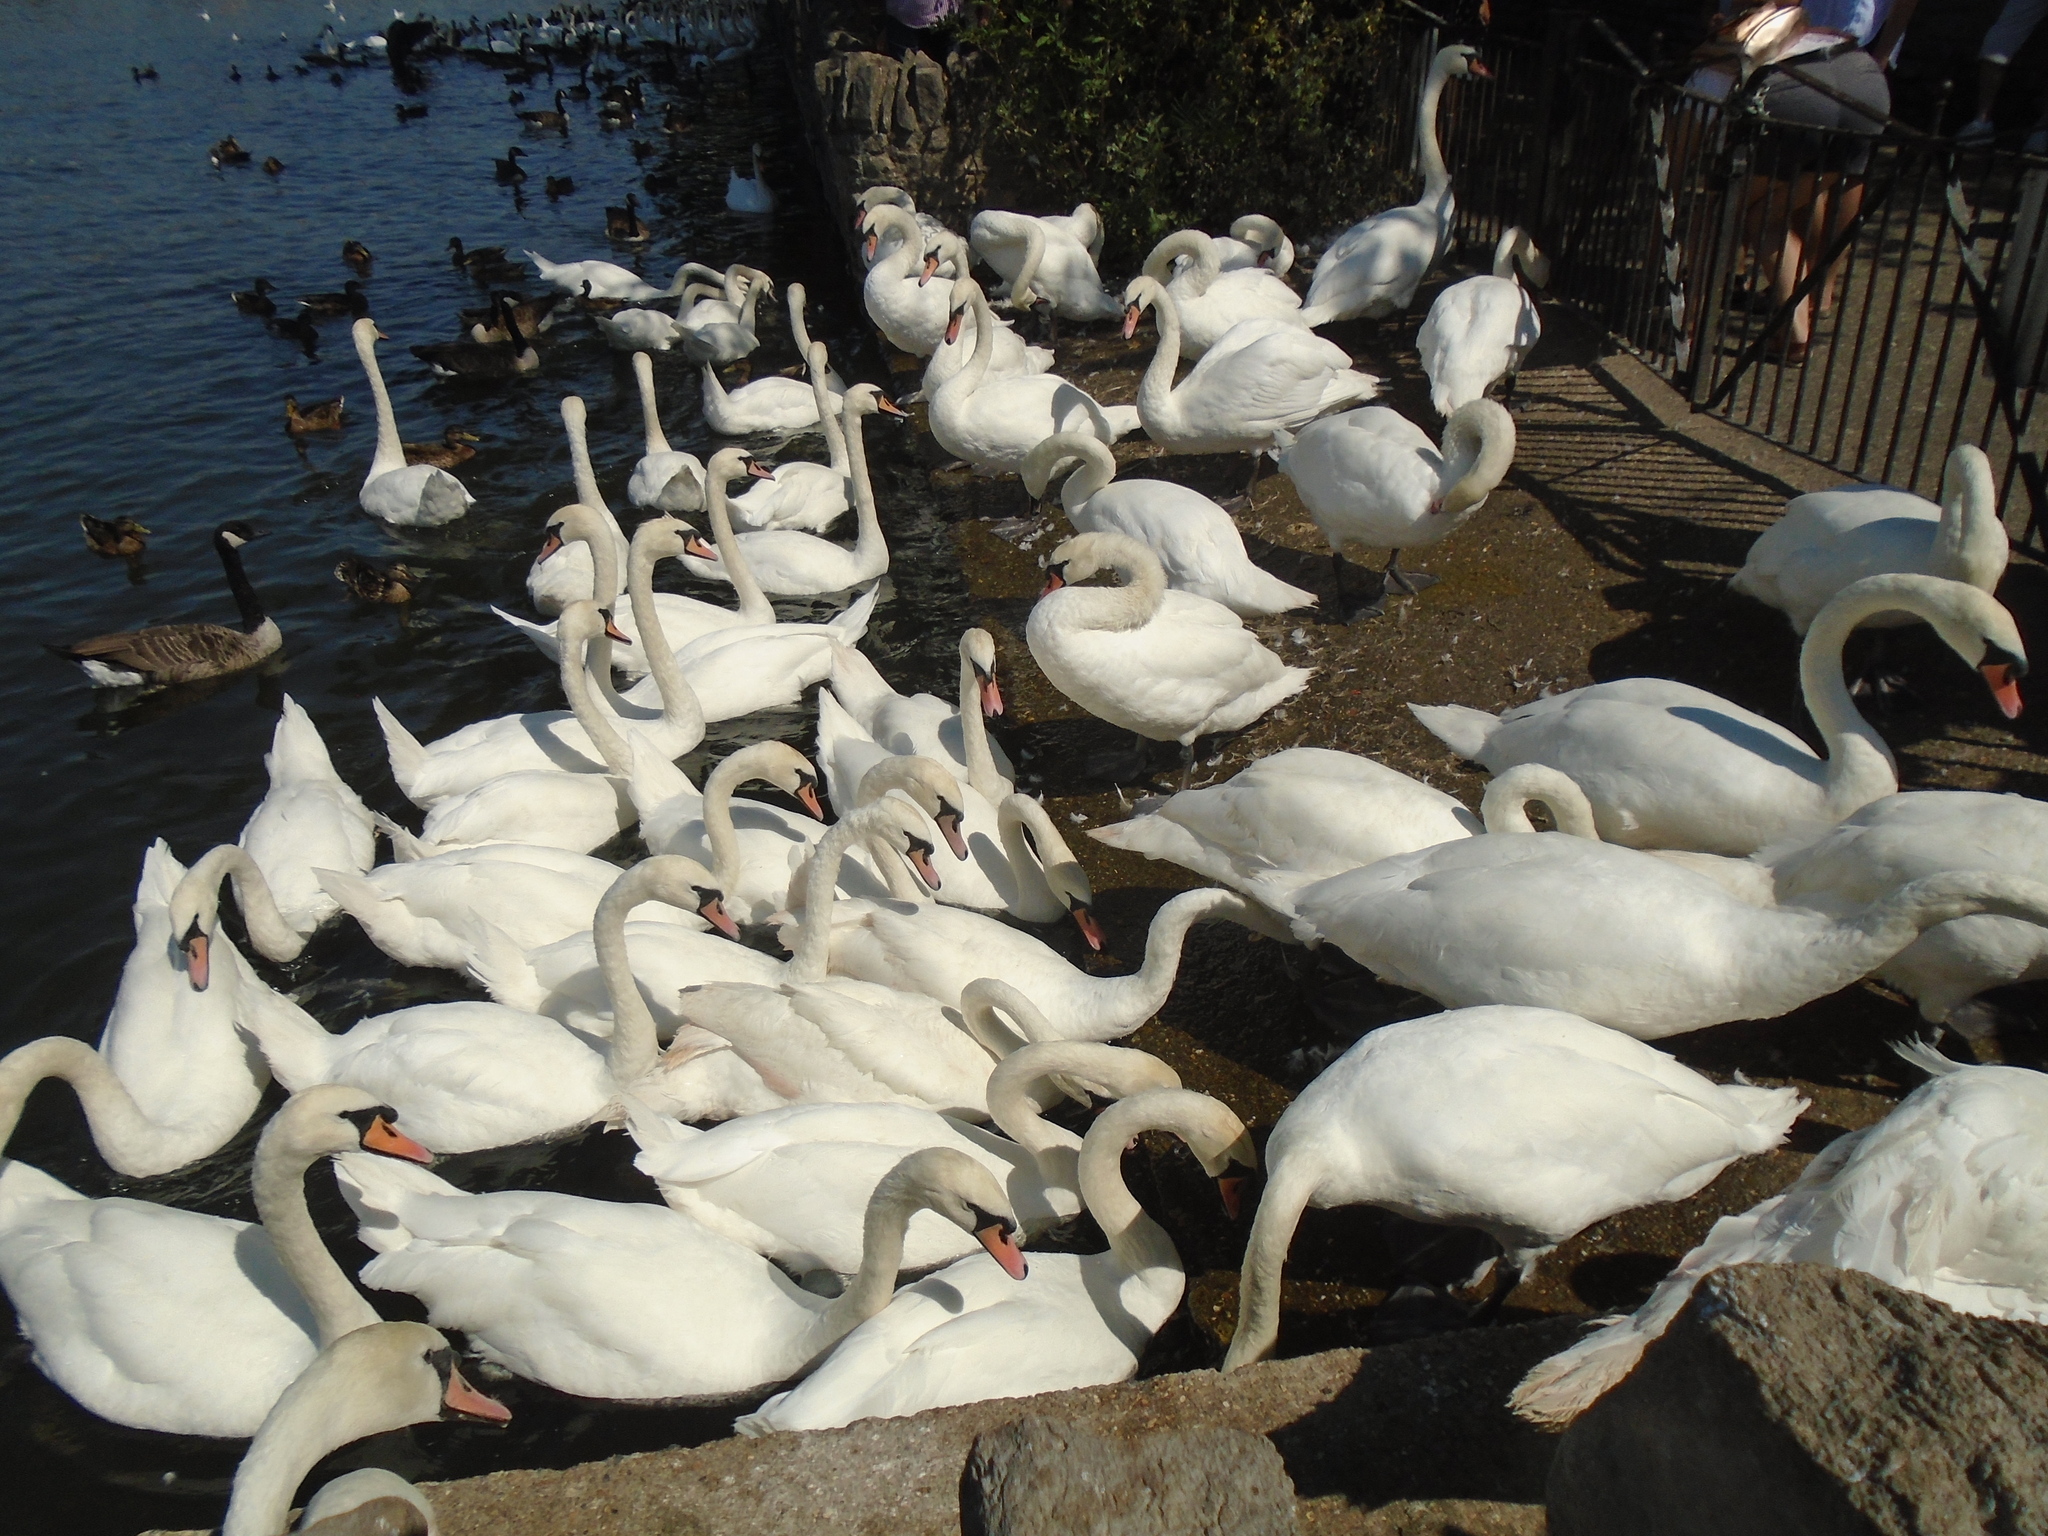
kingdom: Animalia
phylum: Chordata
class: Aves
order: Anseriformes
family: Anatidae
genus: Cygnus
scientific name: Cygnus olor
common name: Mute swan
